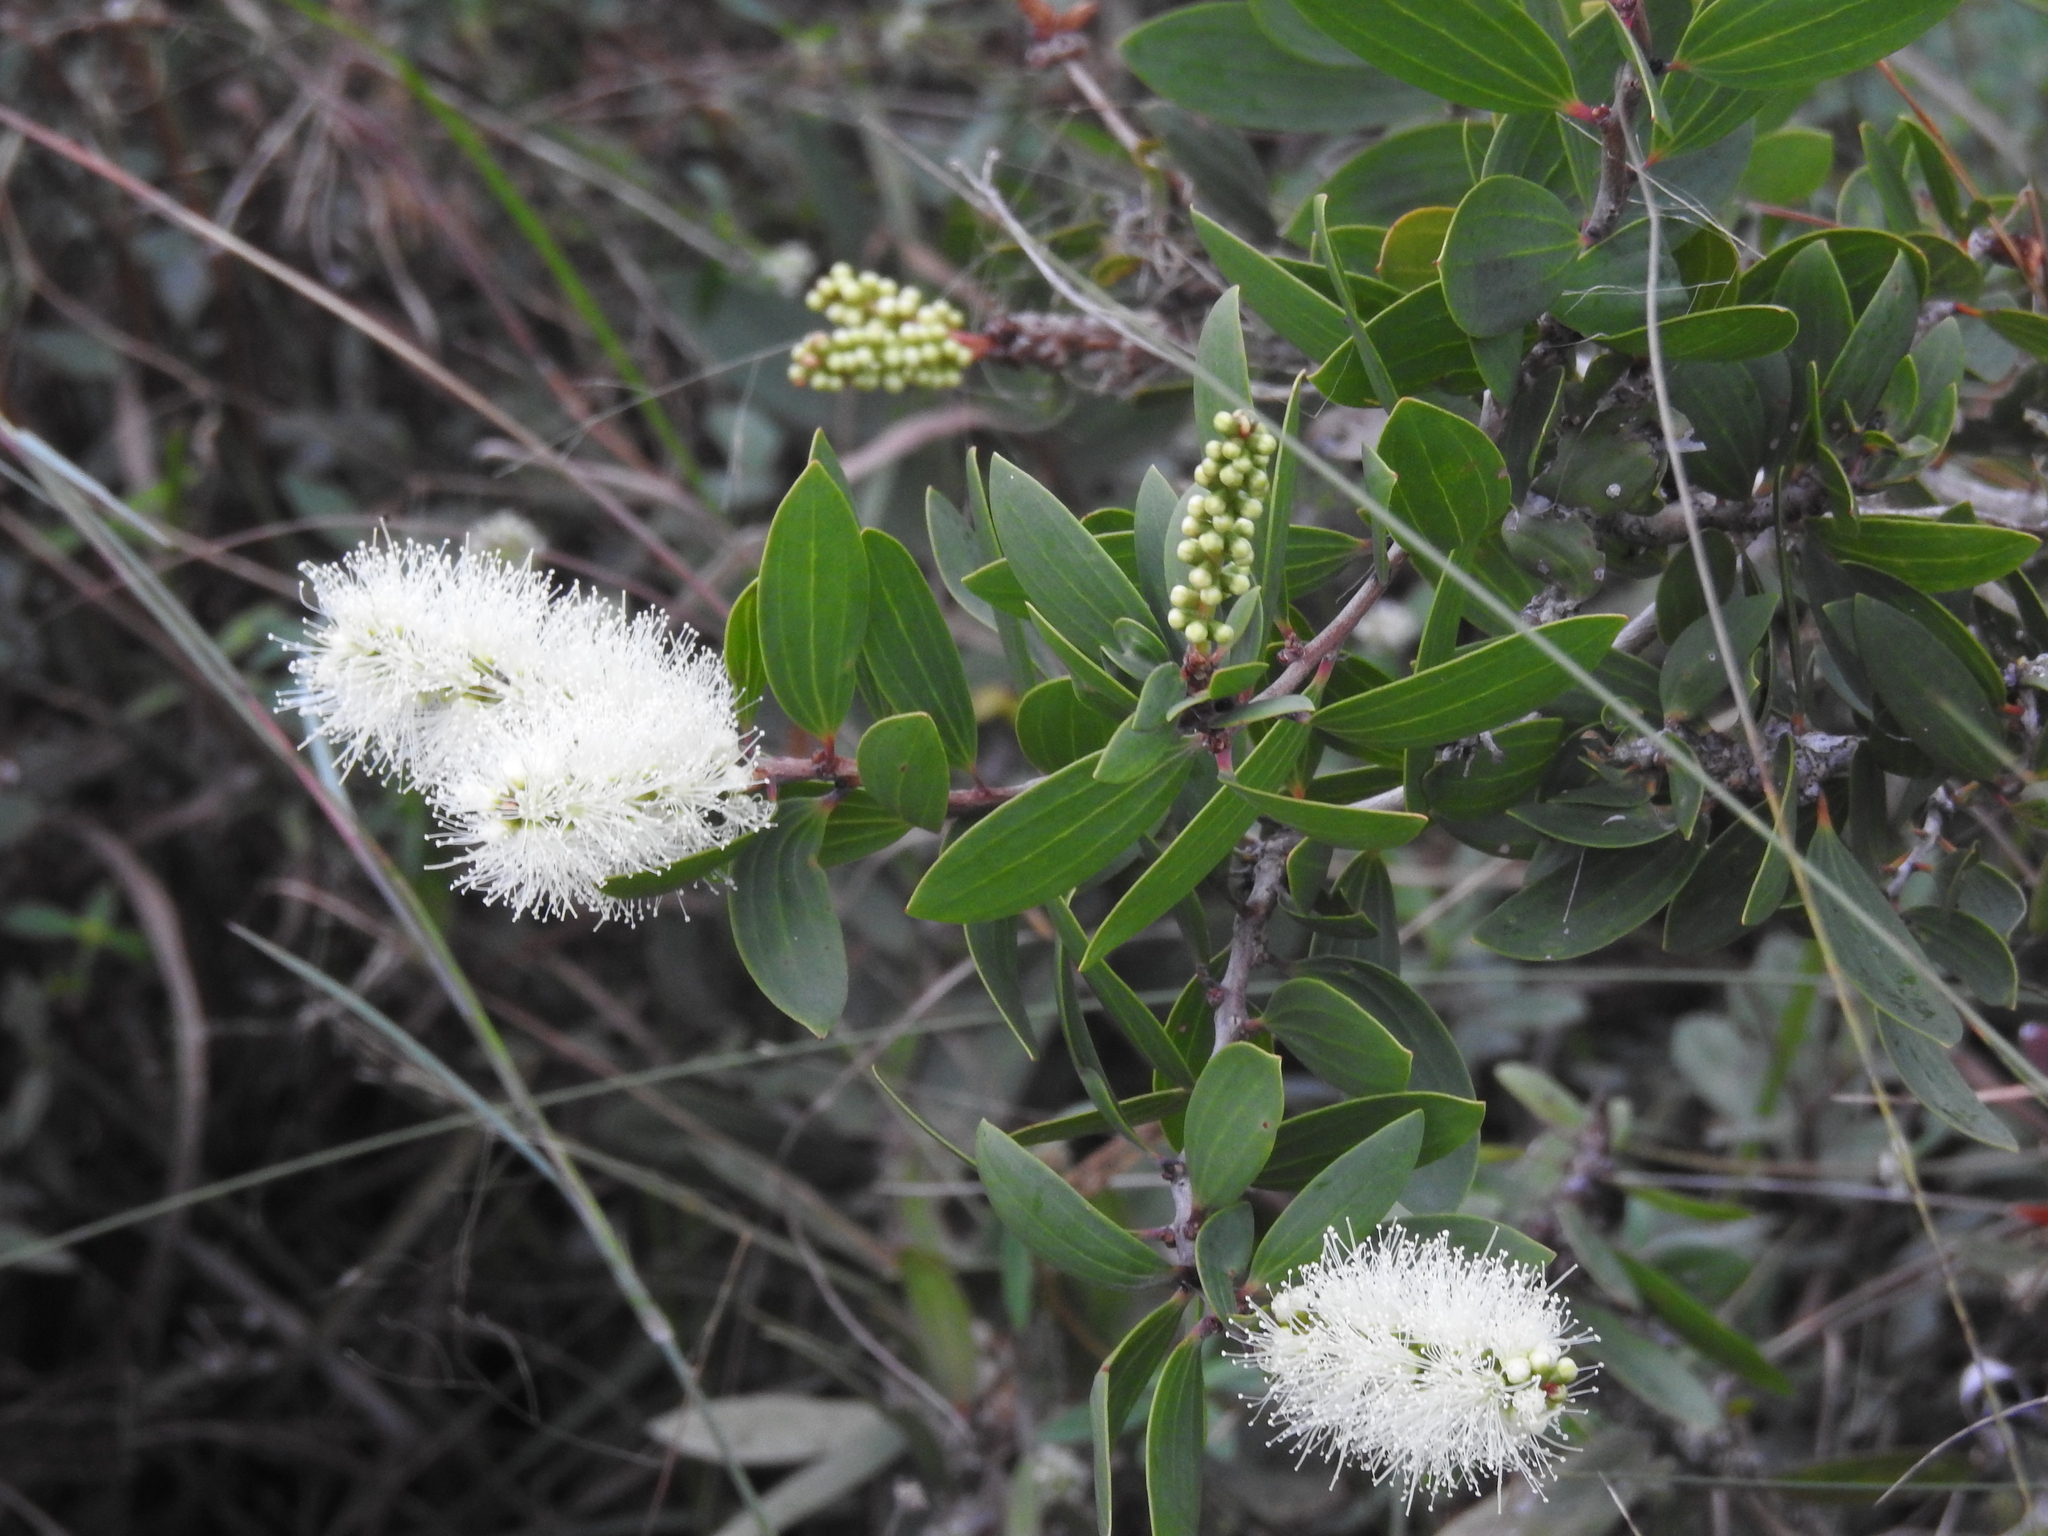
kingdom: Plantae
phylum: Tracheophyta
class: Magnoliopsida
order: Myrtales
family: Myrtaceae
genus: Melaleuca
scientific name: Melaleuca quinquenervia
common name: Punktree
